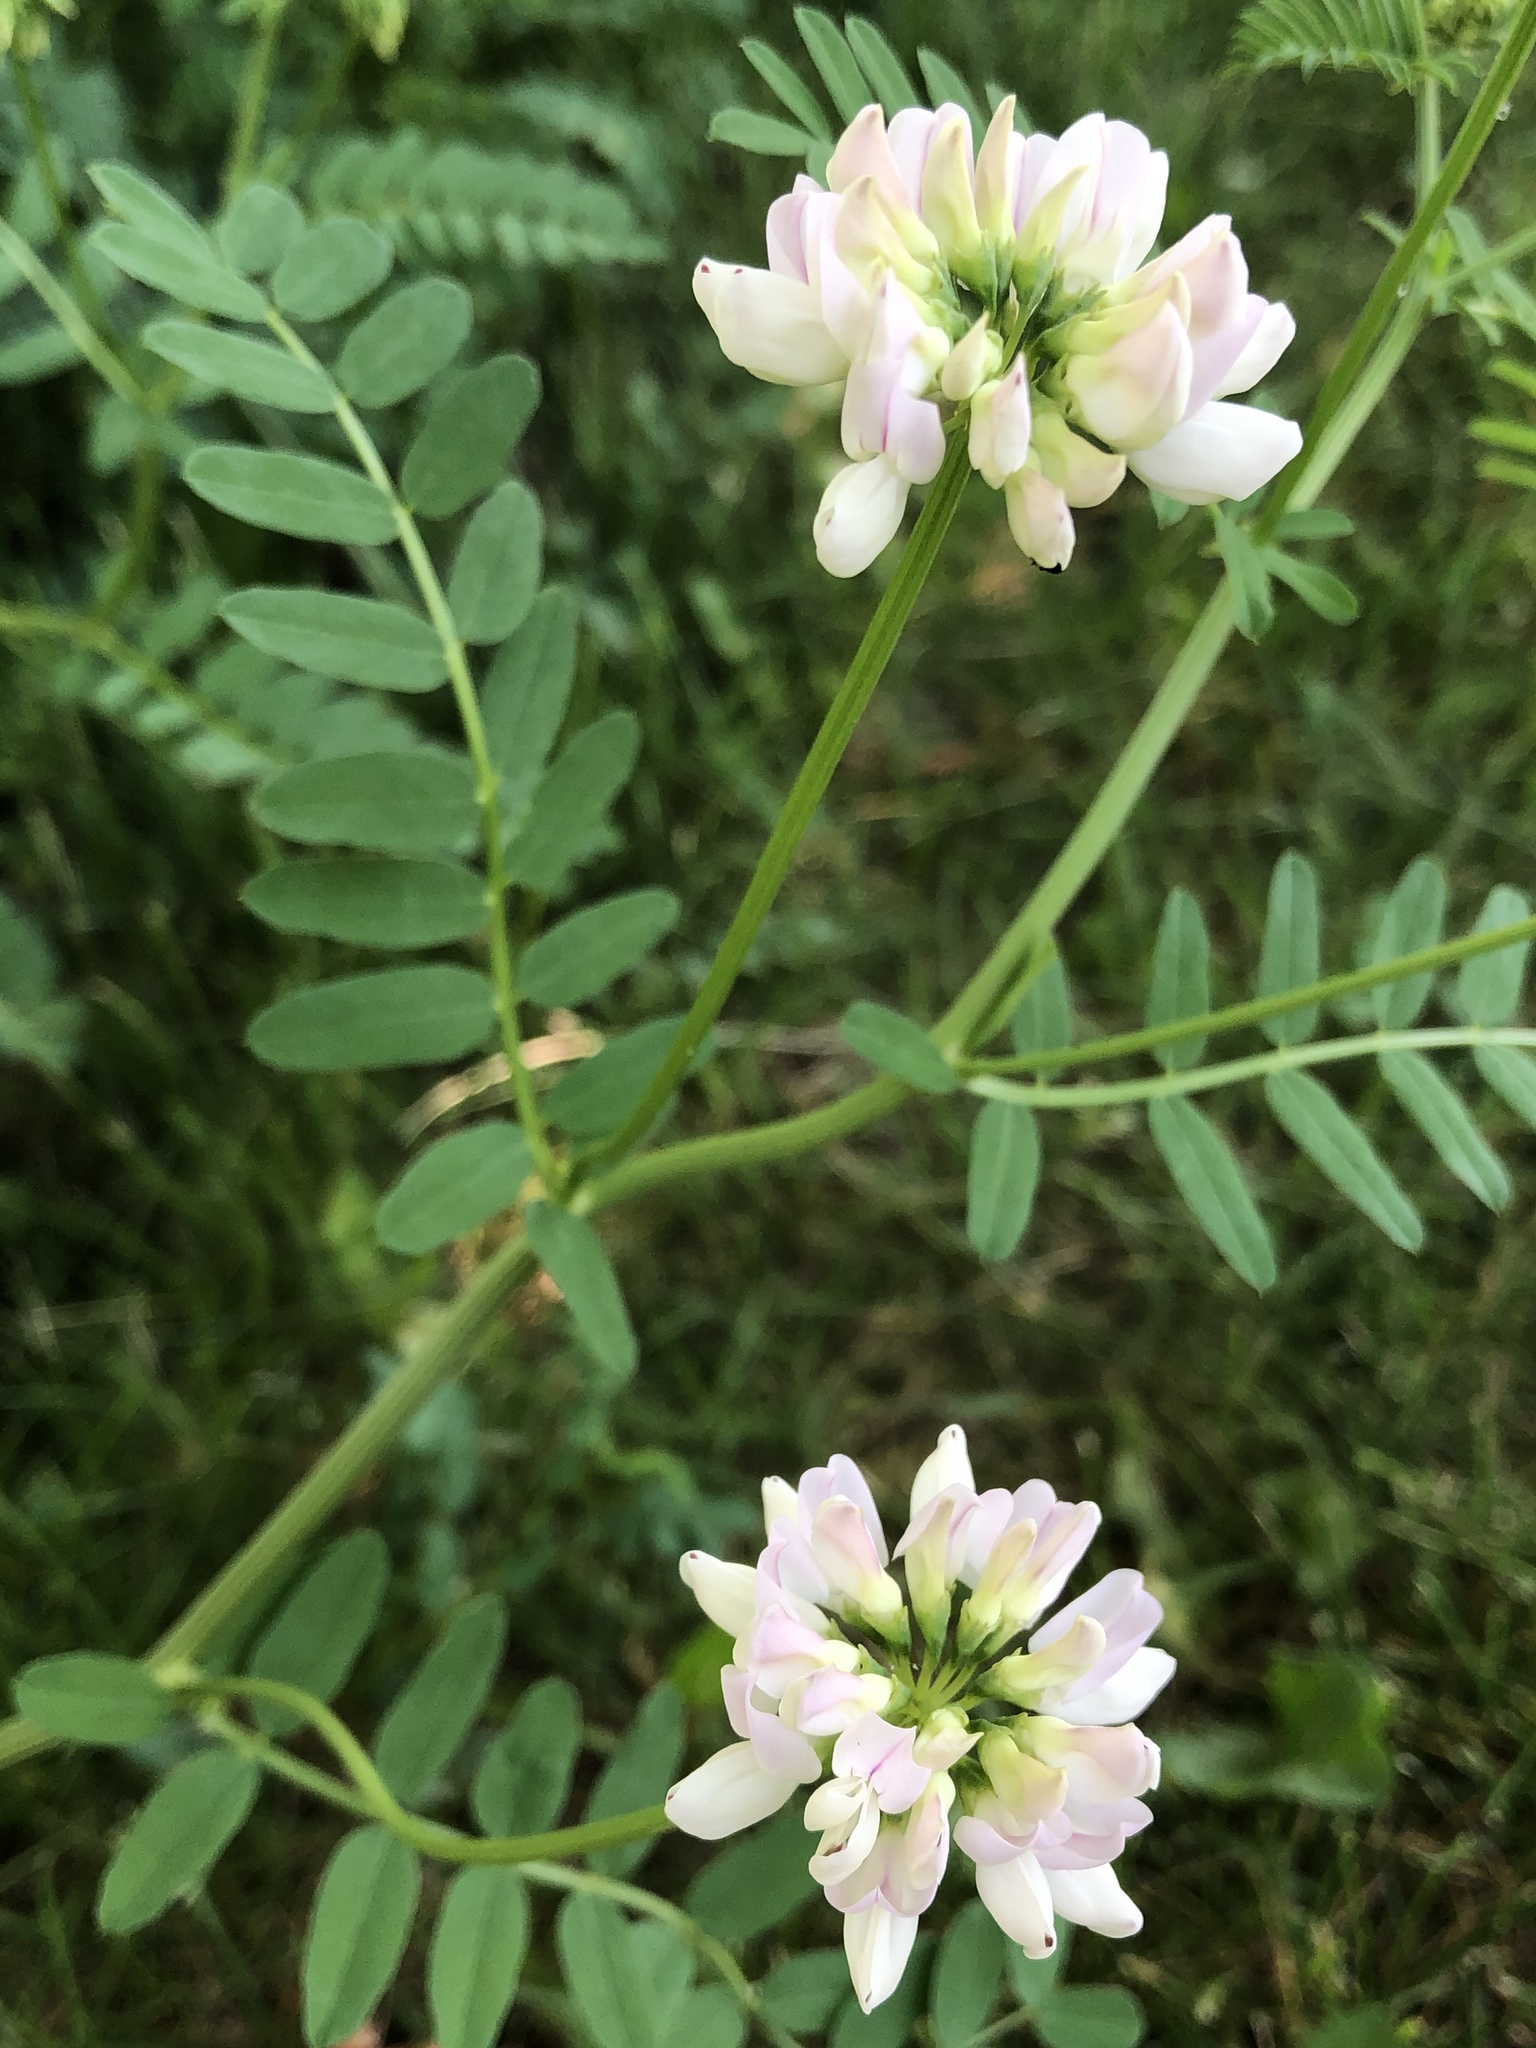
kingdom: Plantae
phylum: Tracheophyta
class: Magnoliopsida
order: Fabales
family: Fabaceae
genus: Coronilla
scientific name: Coronilla varia
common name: Crownvetch
